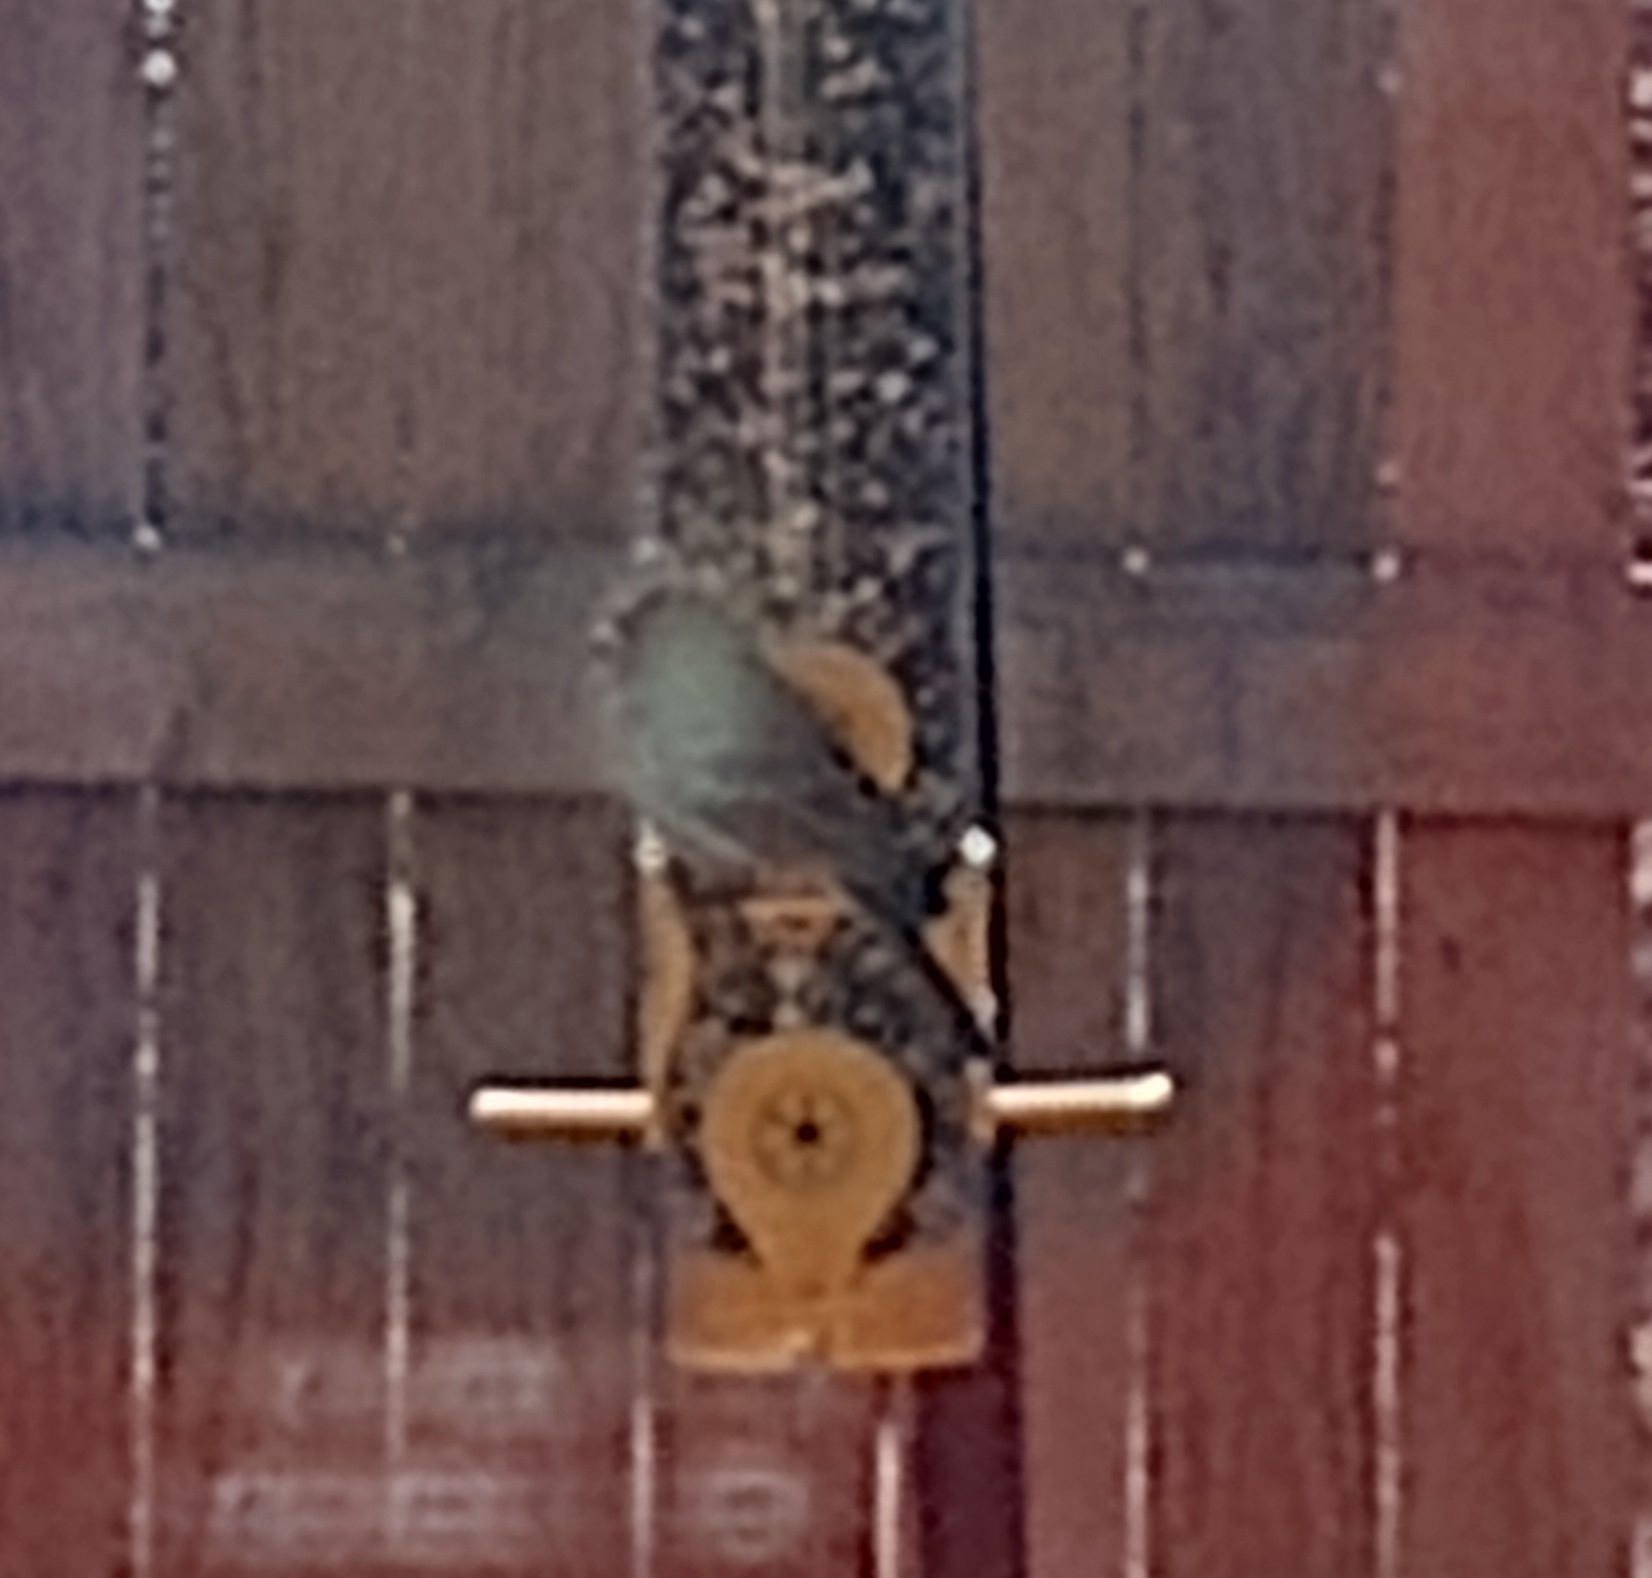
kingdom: Animalia
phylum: Chordata
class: Aves
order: Passeriformes
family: Fringillidae
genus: Haemorhous
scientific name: Haemorhous mexicanus
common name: House finch
